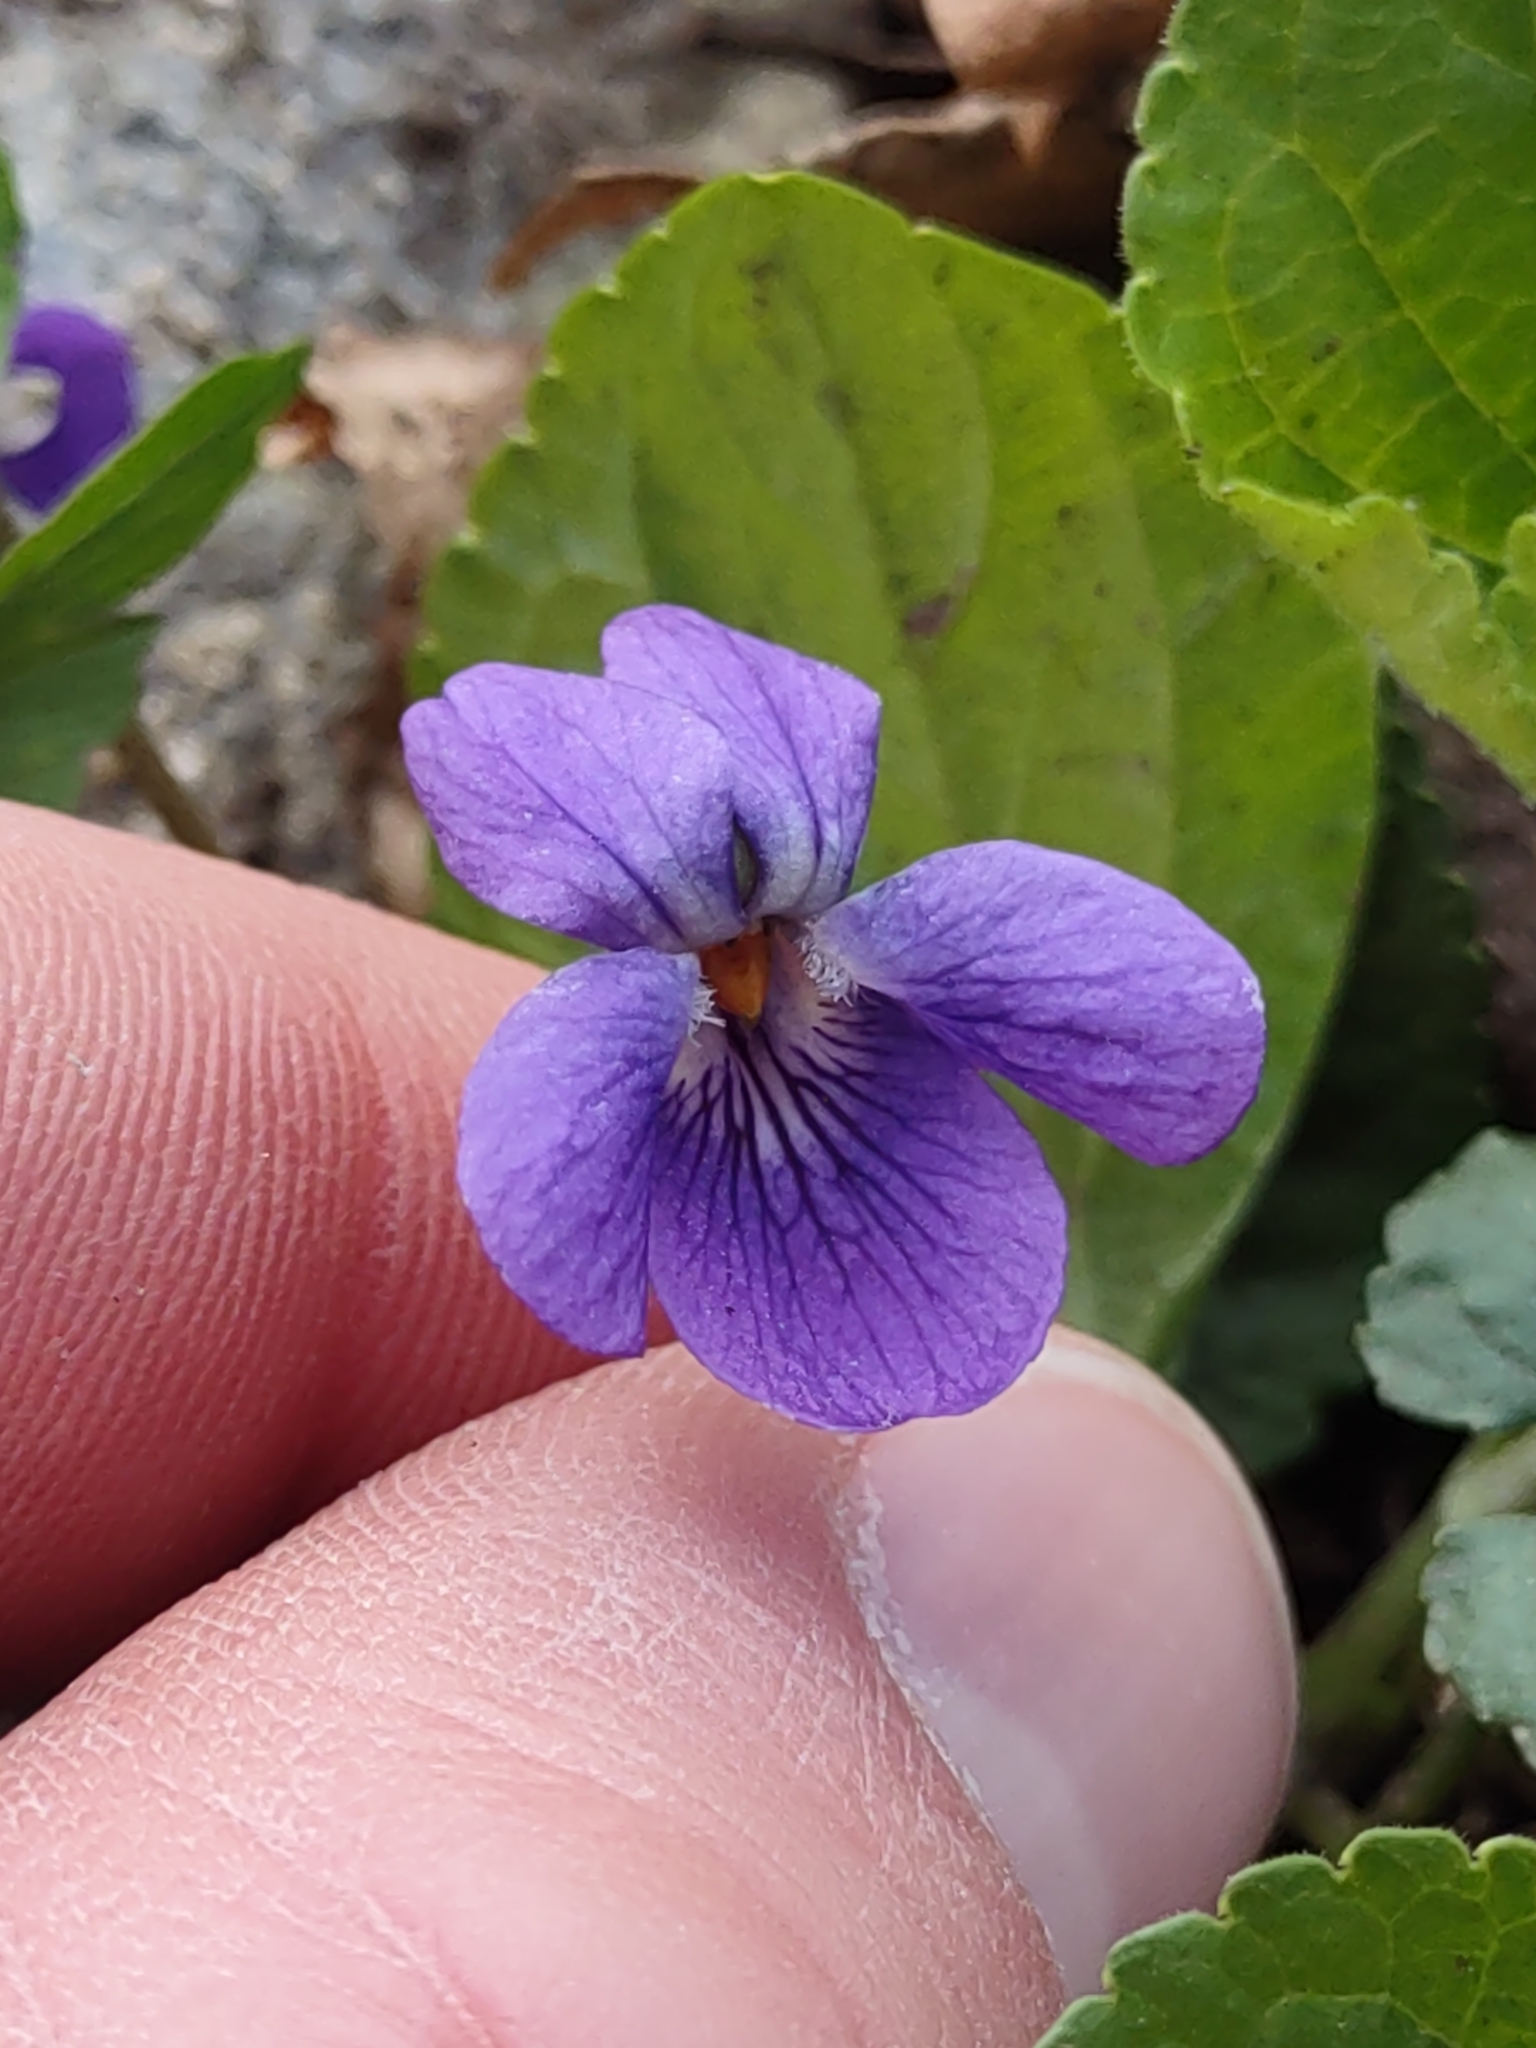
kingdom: Plantae
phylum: Tracheophyta
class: Magnoliopsida
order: Malpighiales
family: Violaceae
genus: Viola
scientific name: Viola odorata
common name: Sweet violet
